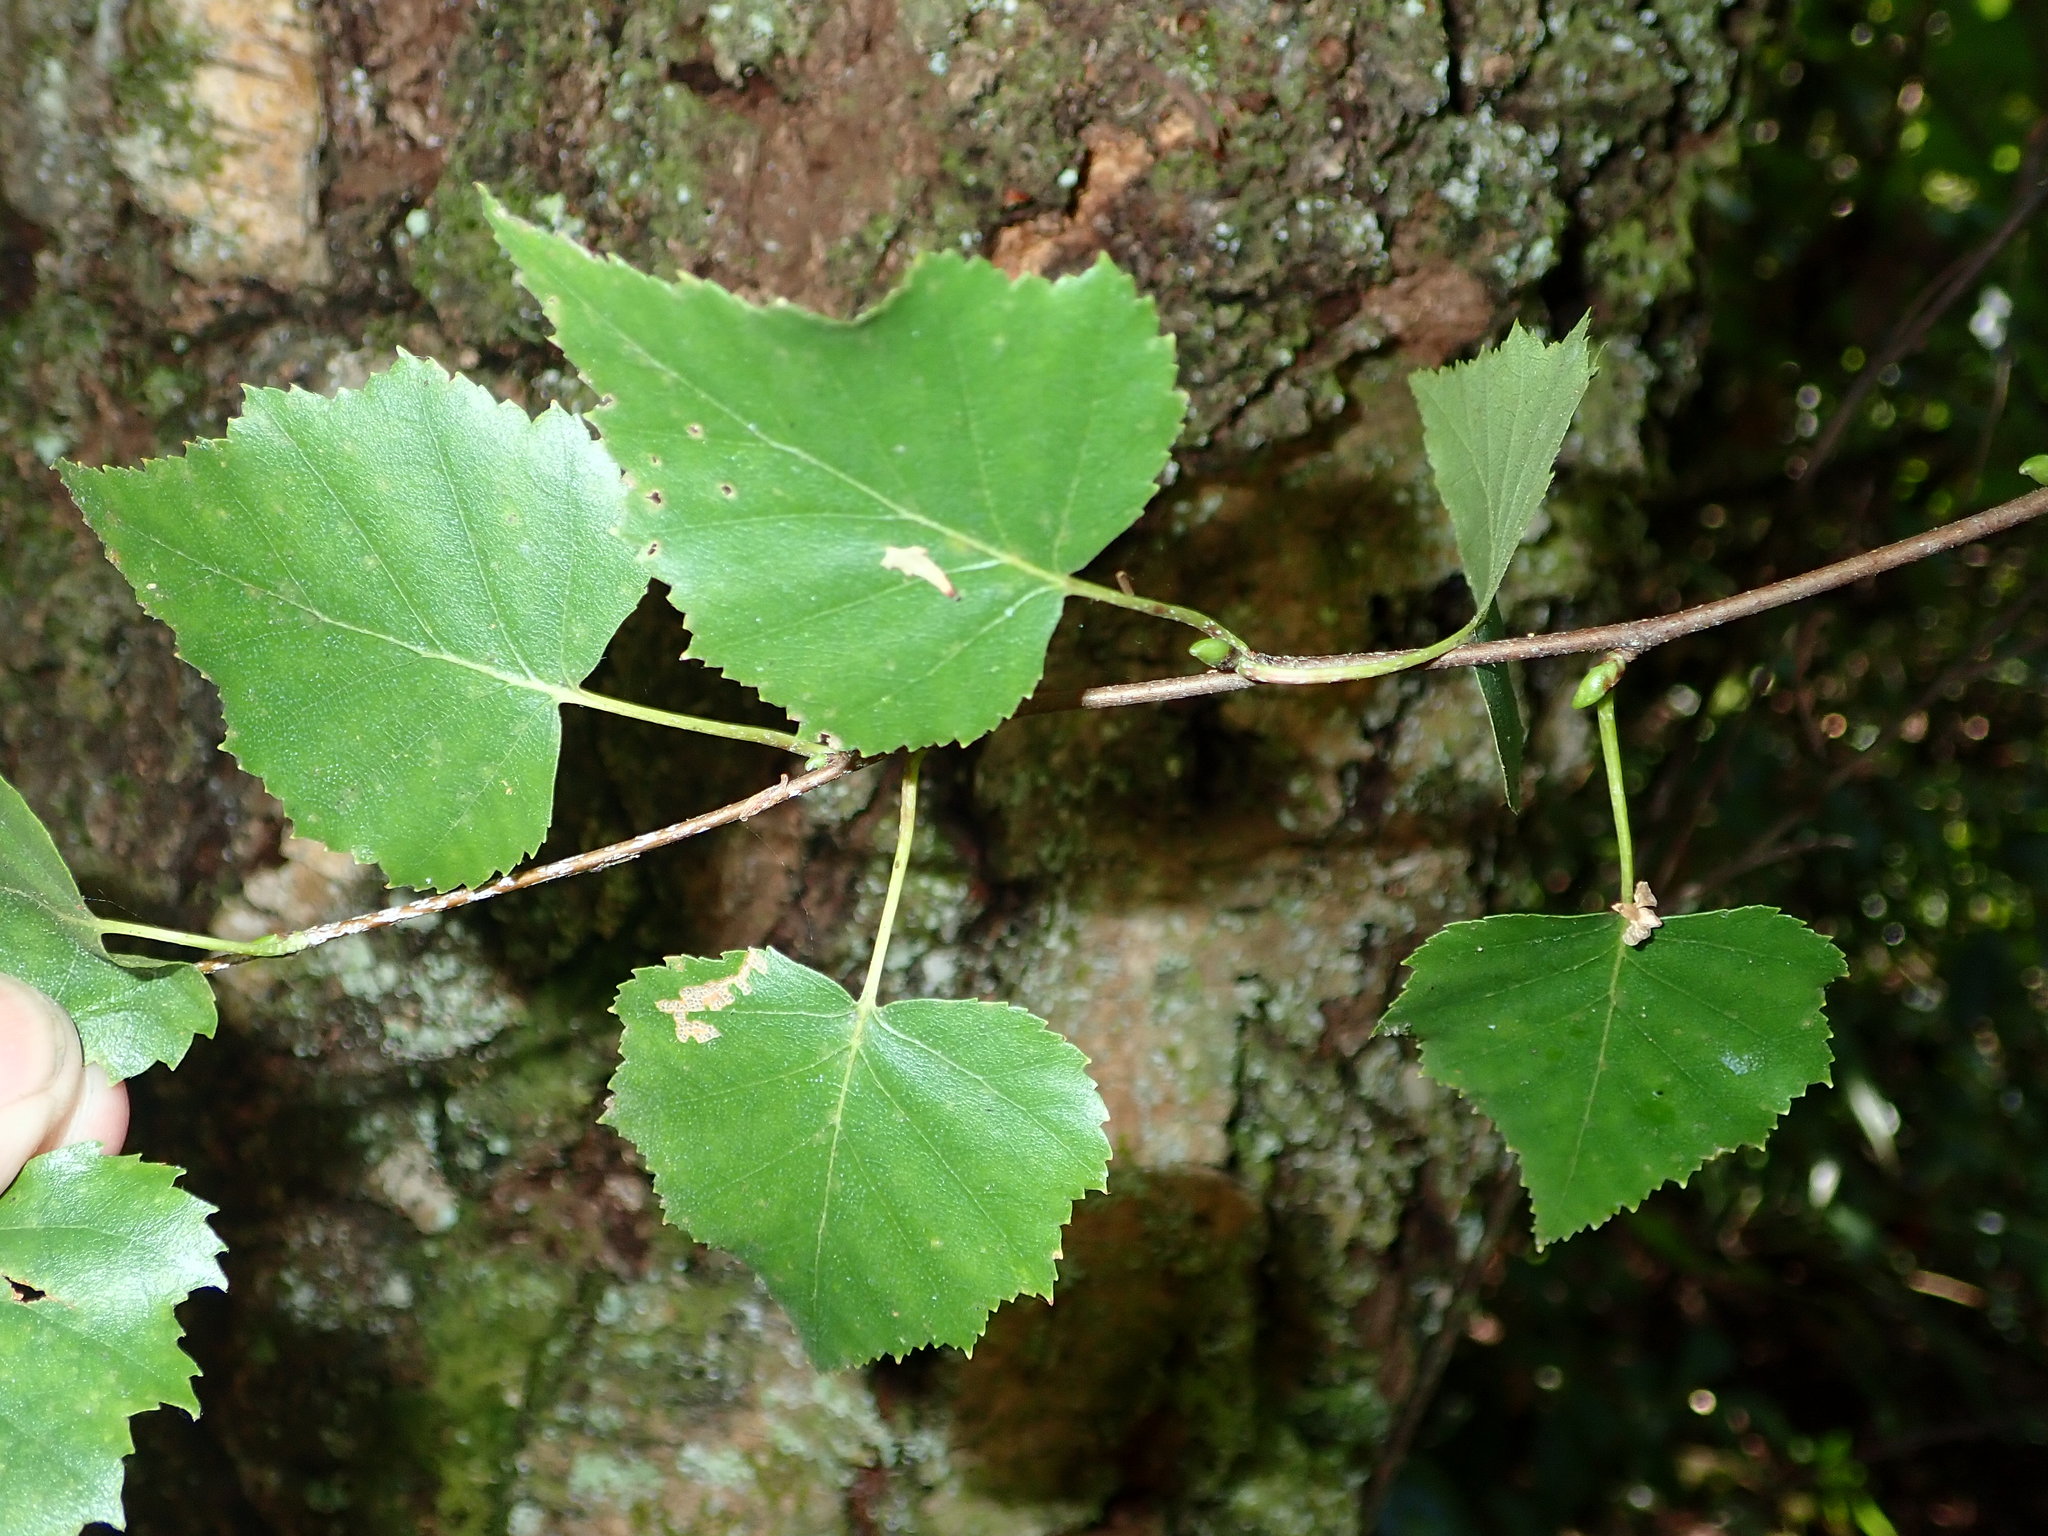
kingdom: Plantae
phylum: Tracheophyta
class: Magnoliopsida
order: Fagales
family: Betulaceae
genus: Betula
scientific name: Betula pendula
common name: Silver birch
